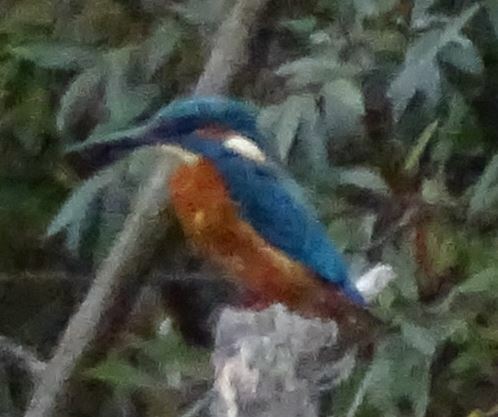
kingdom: Animalia
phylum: Chordata
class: Aves
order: Coraciiformes
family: Alcedinidae
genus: Alcedo
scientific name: Alcedo atthis
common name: Common kingfisher
